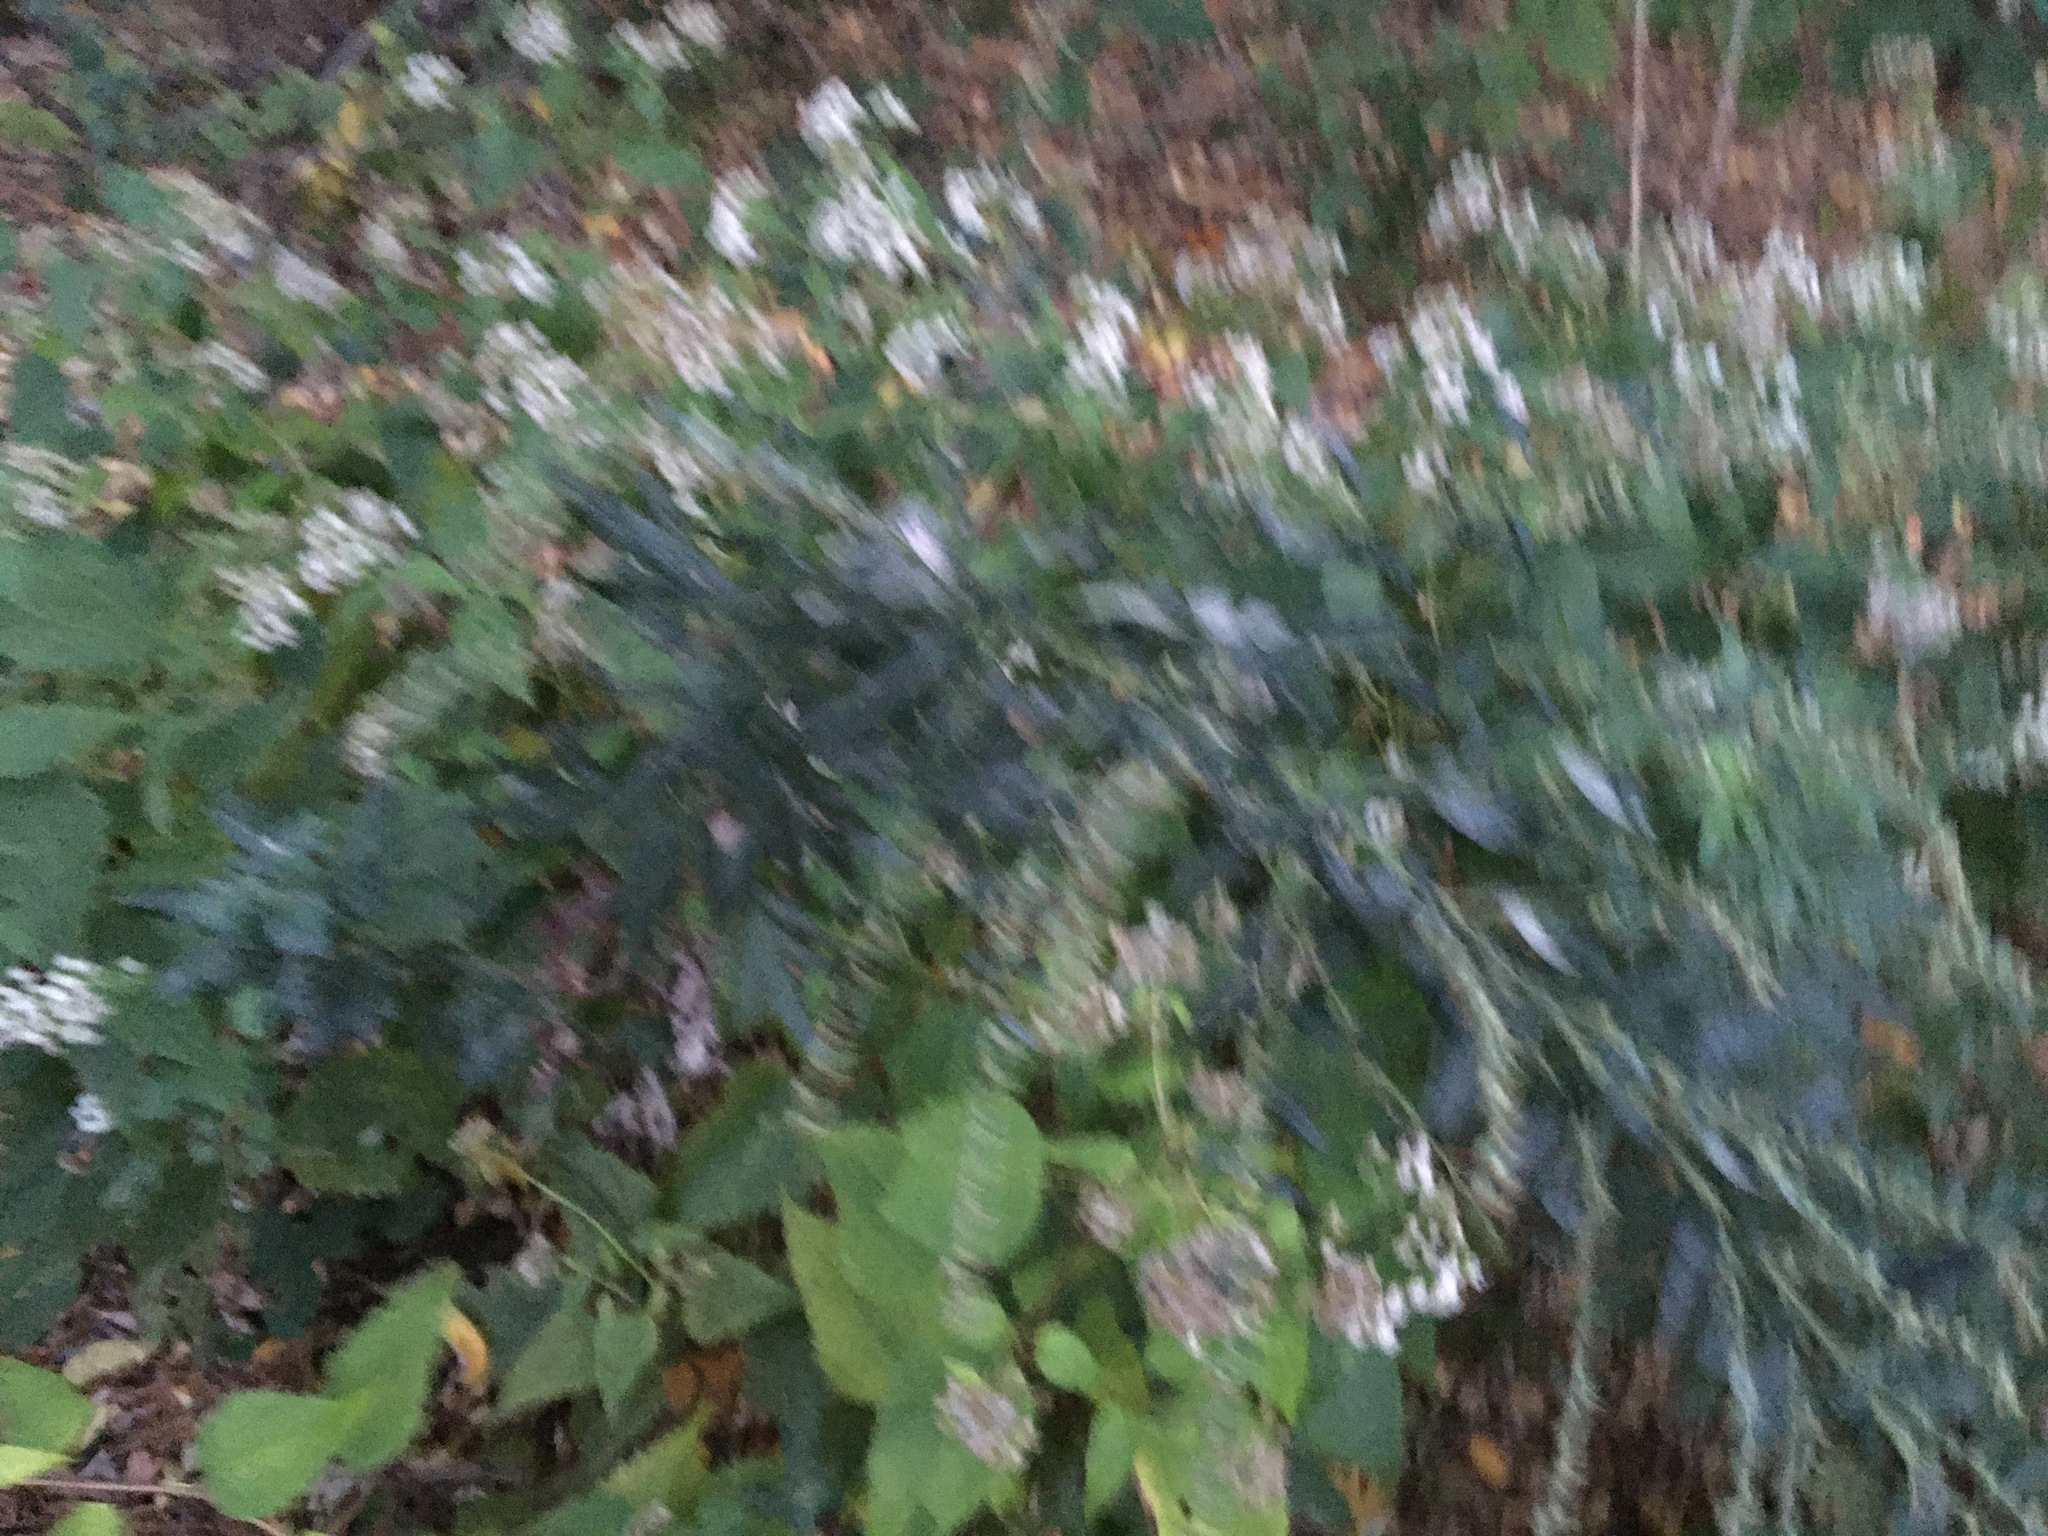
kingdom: Plantae
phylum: Tracheophyta
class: Magnoliopsida
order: Asterales
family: Asteraceae
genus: Artemisia
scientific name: Artemisia vulgaris
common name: Mugwort
